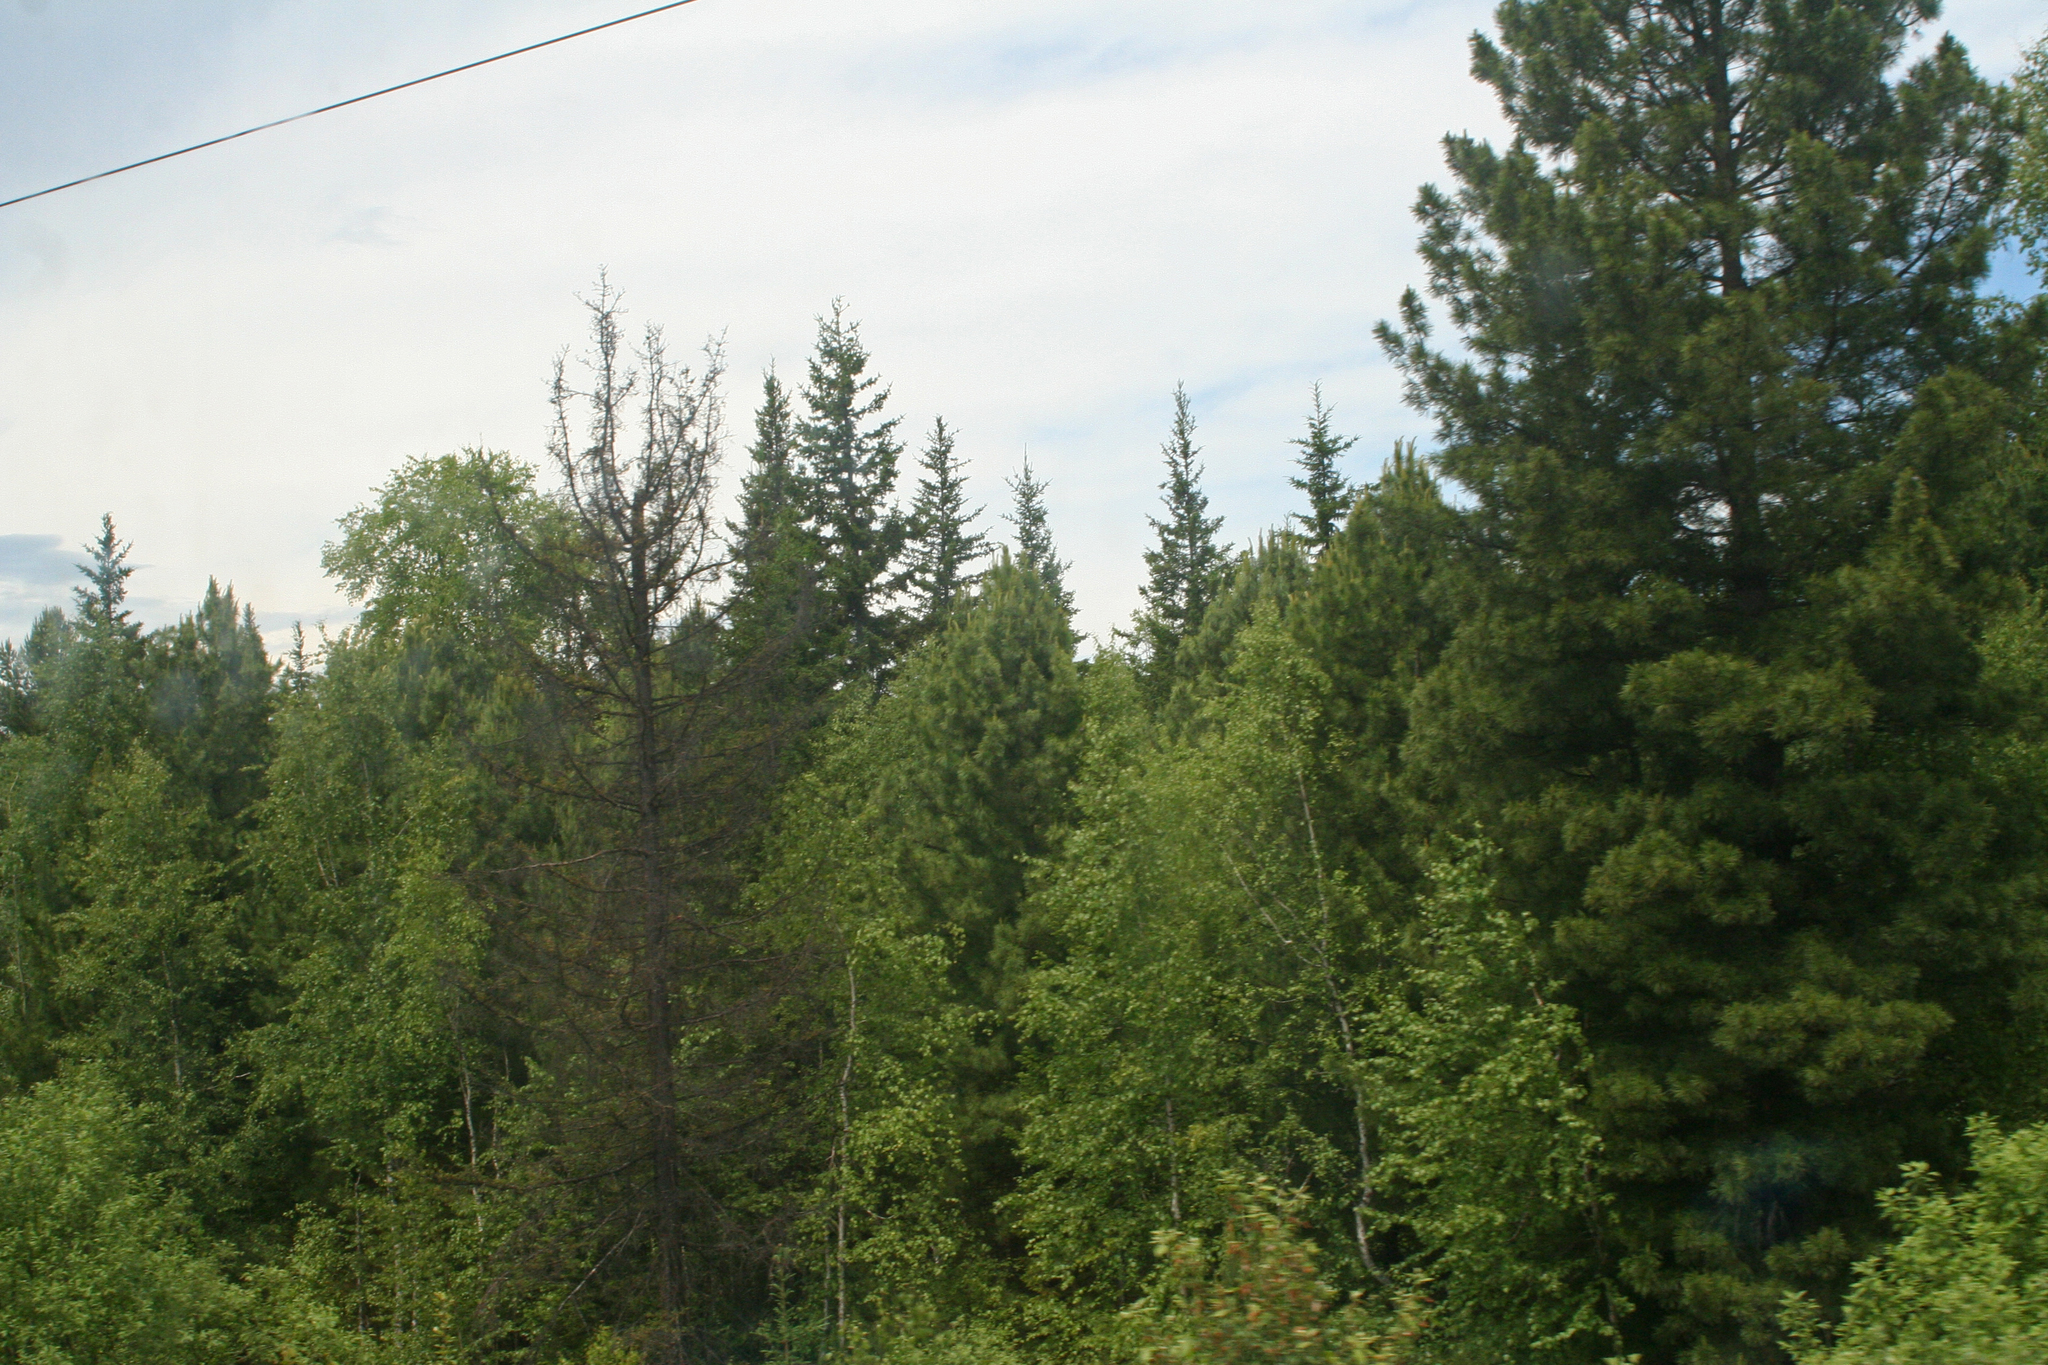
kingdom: Plantae
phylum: Tracheophyta
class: Pinopsida
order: Pinales
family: Pinaceae
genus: Pinus
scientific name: Pinus sibirica
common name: Siberian pine
